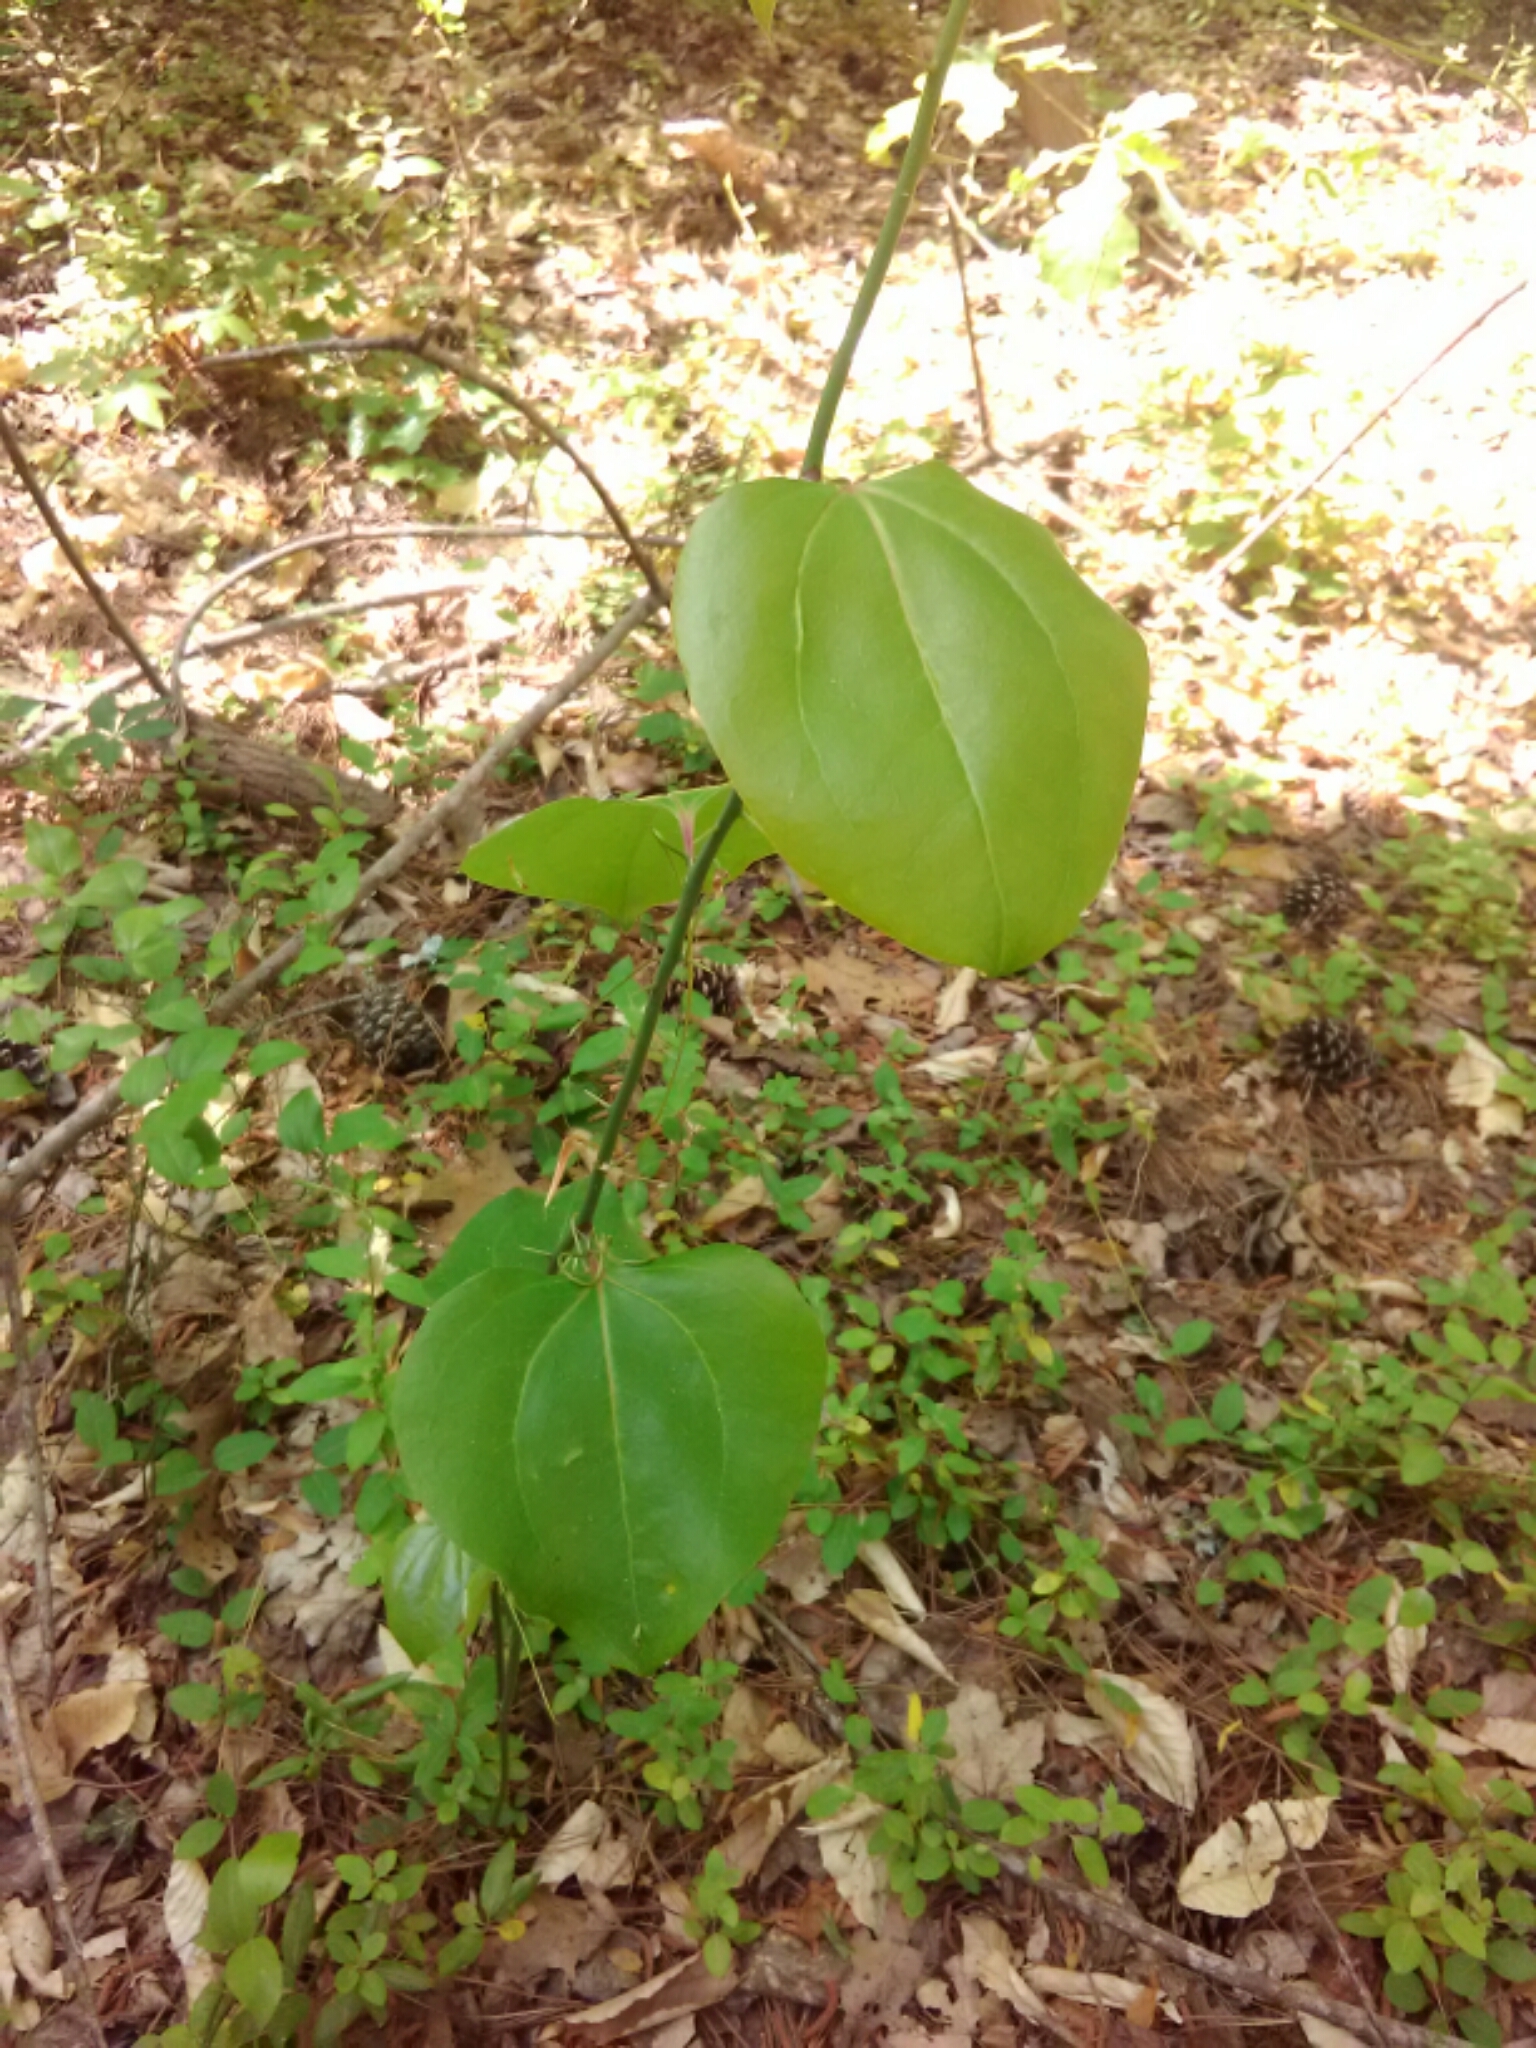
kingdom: Plantae
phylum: Tracheophyta
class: Liliopsida
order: Liliales
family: Smilacaceae
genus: Smilax
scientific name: Smilax rotundifolia
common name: Bullbriar
